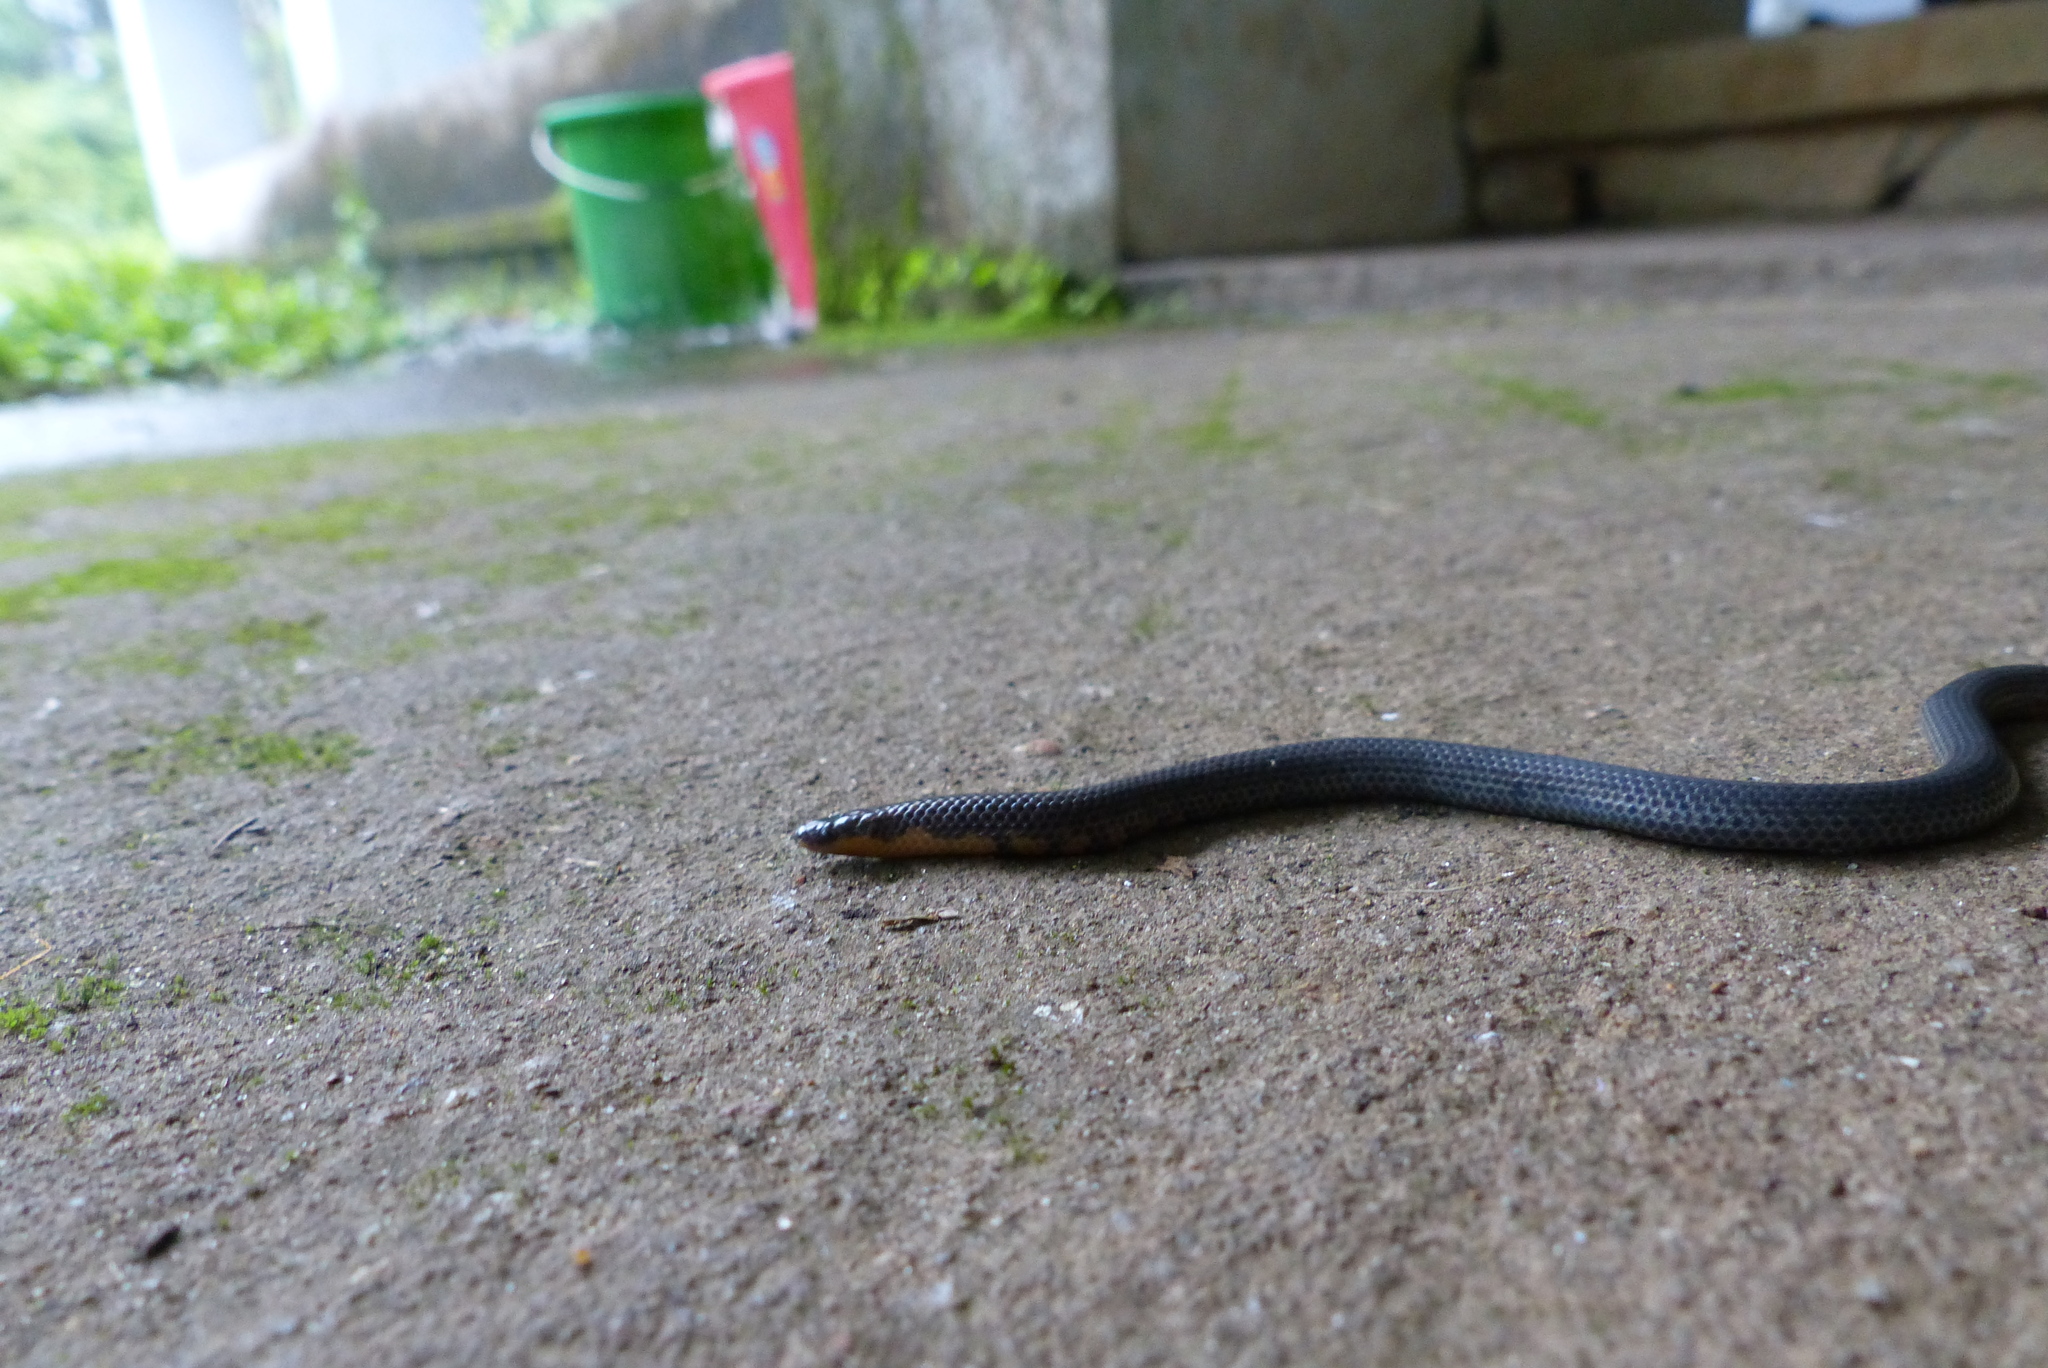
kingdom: Animalia
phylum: Chordata
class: Squamata
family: Uropeltidae
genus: Uropeltis
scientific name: Uropeltis ellioti
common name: Elliot's earth snake
